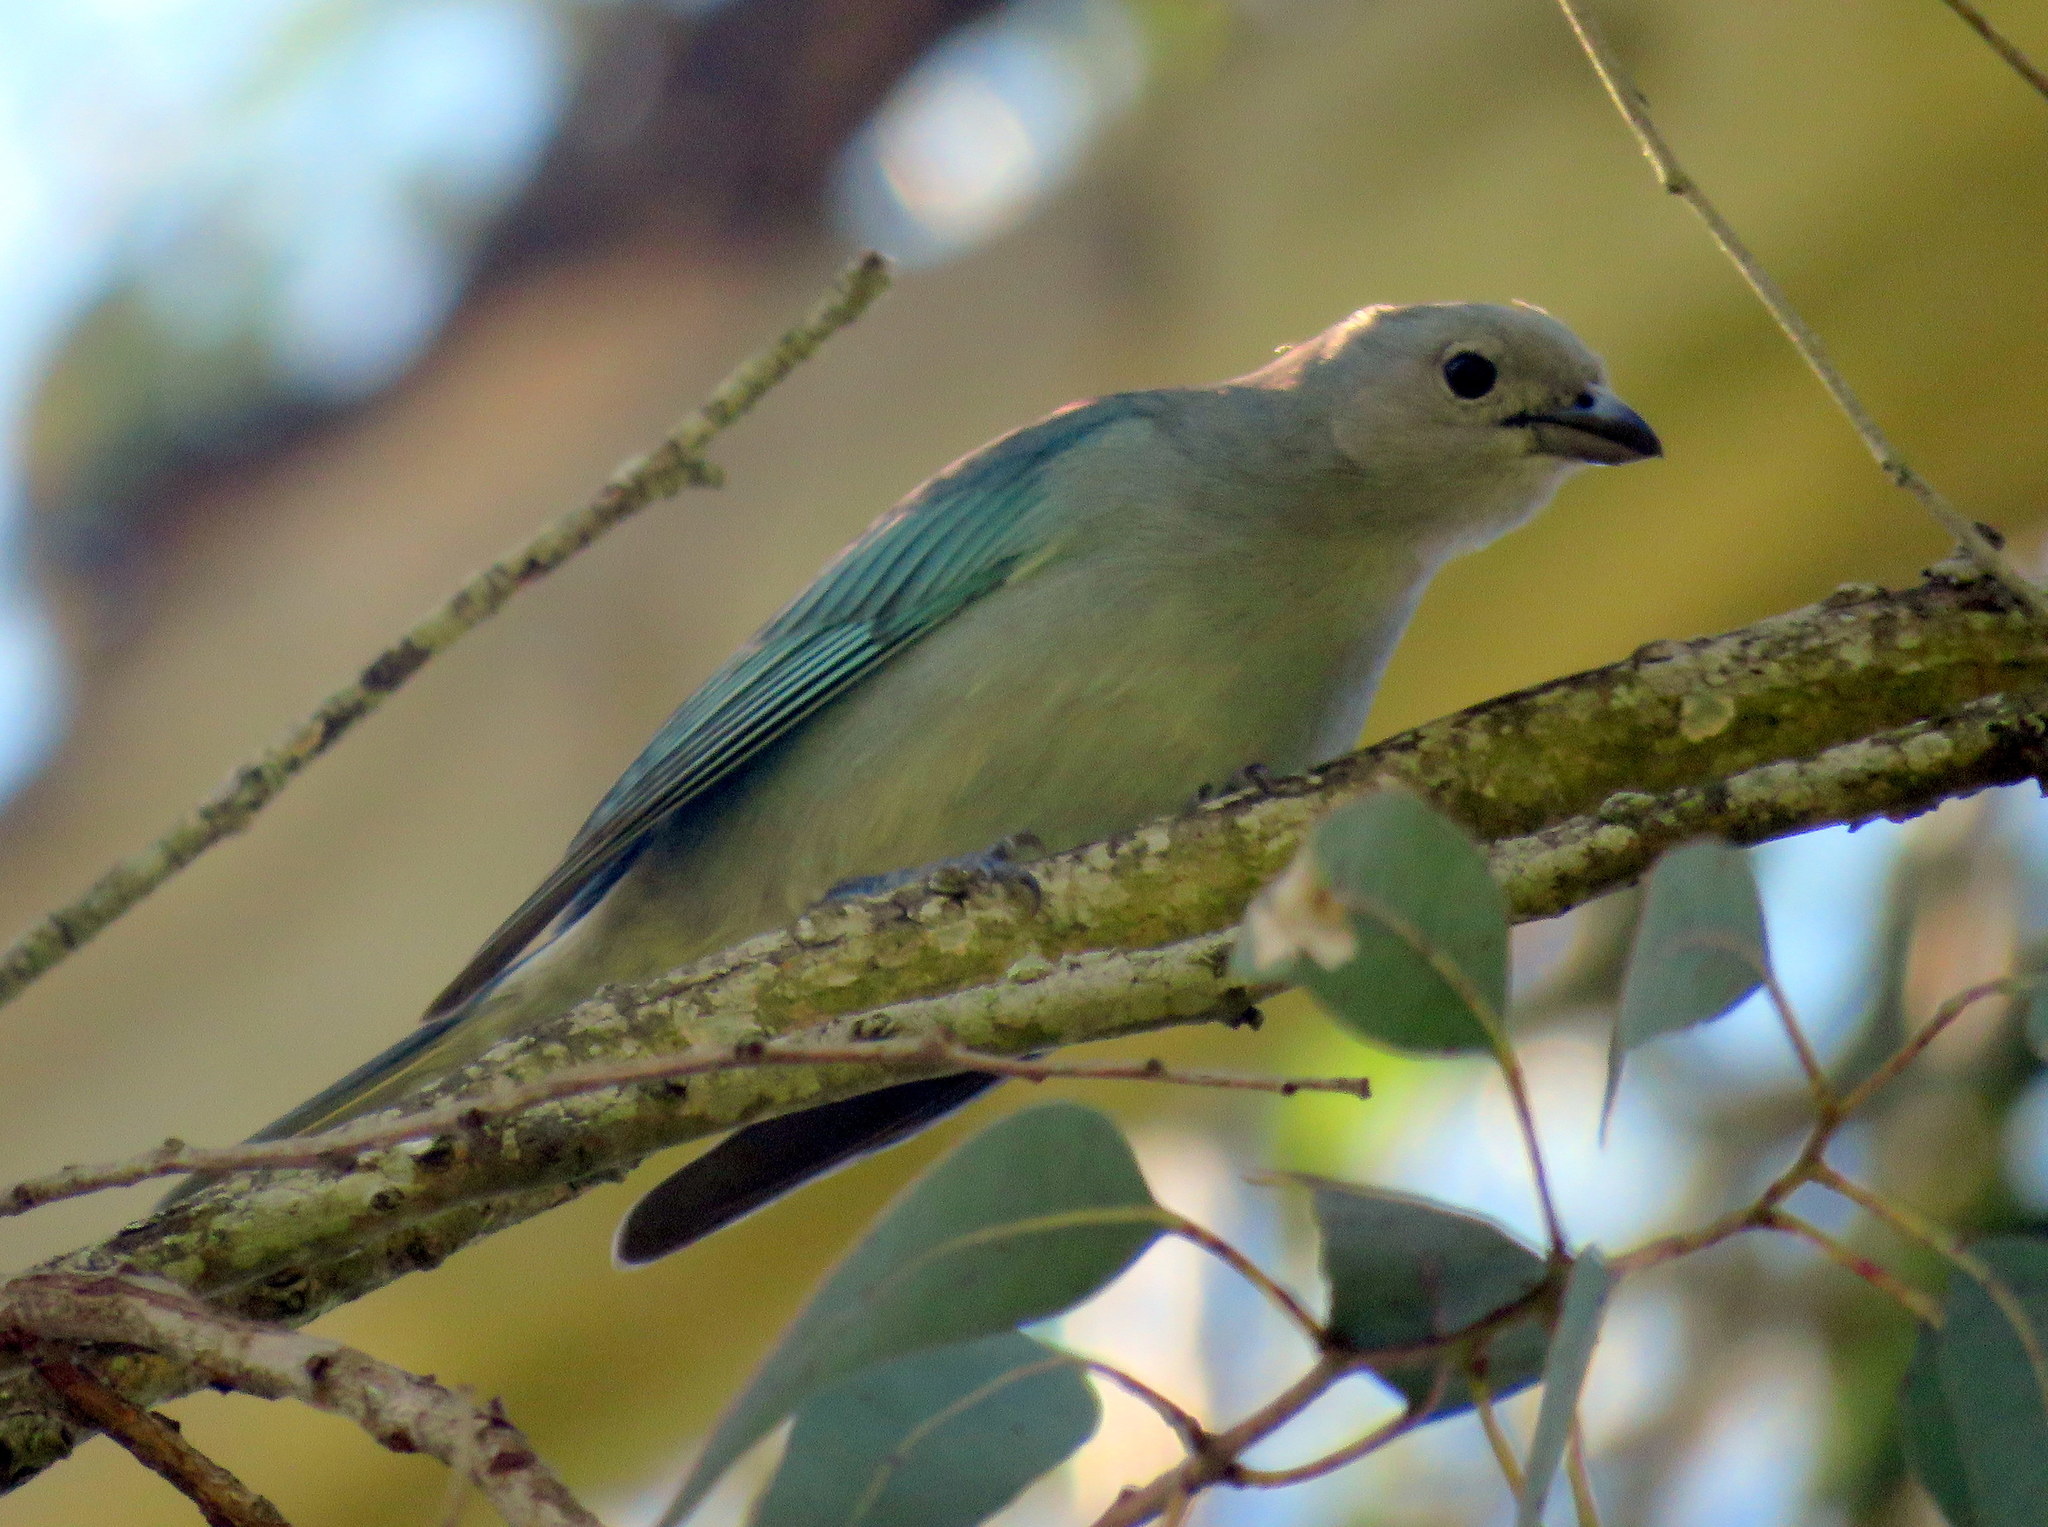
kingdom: Animalia
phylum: Chordata
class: Aves
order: Passeriformes
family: Thraupidae
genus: Thraupis
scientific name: Thraupis sayaca
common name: Sayaca tanager
